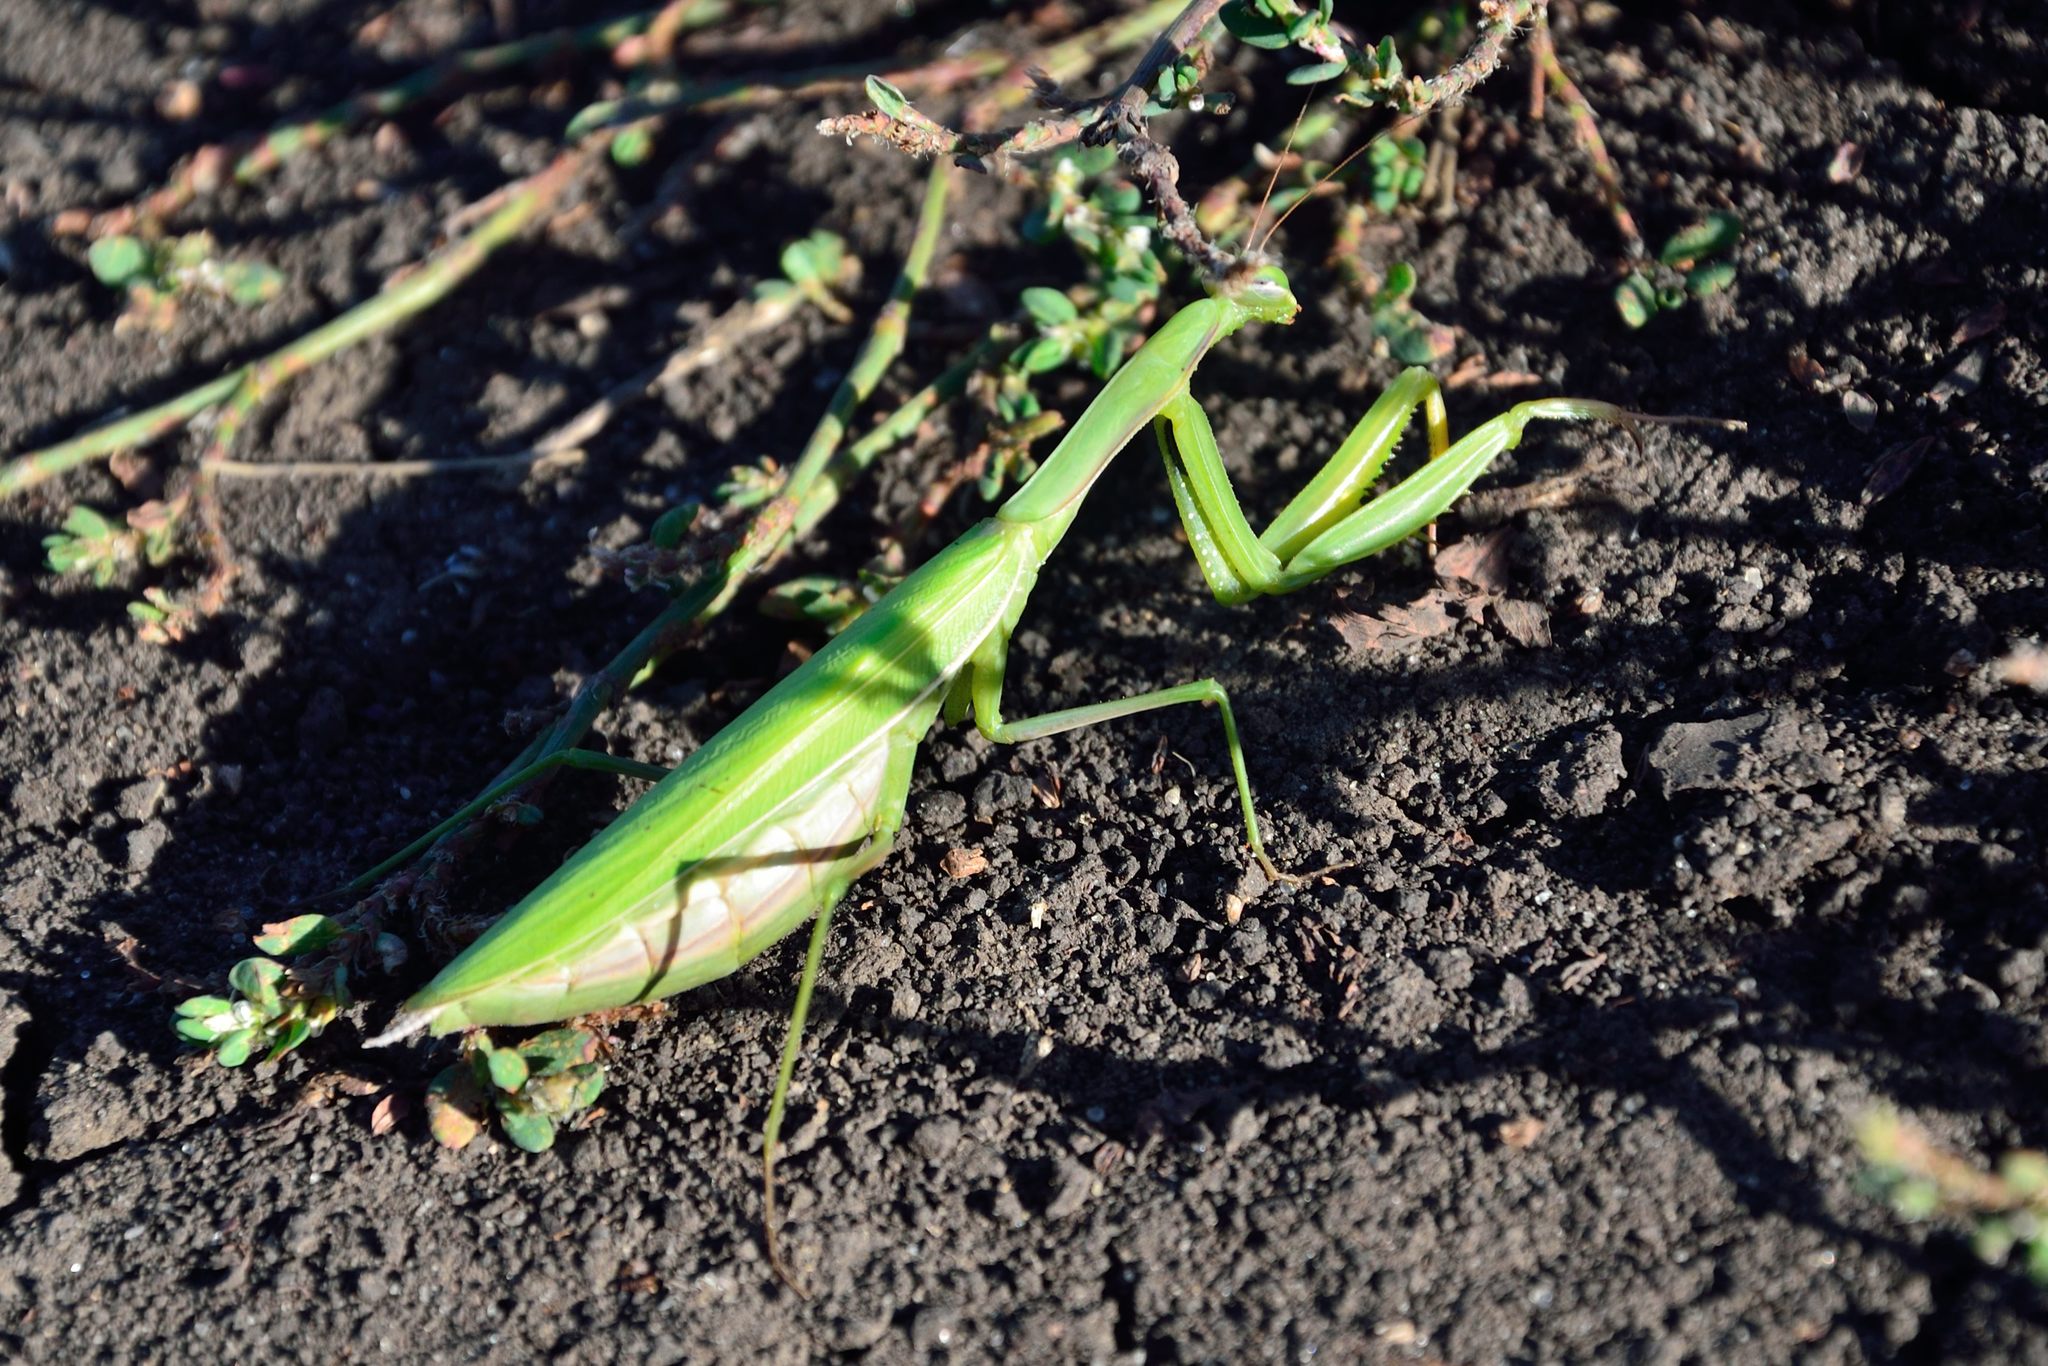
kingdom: Animalia
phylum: Arthropoda
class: Insecta
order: Mantodea
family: Mantidae
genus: Mantis
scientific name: Mantis religiosa
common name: Praying mantis
